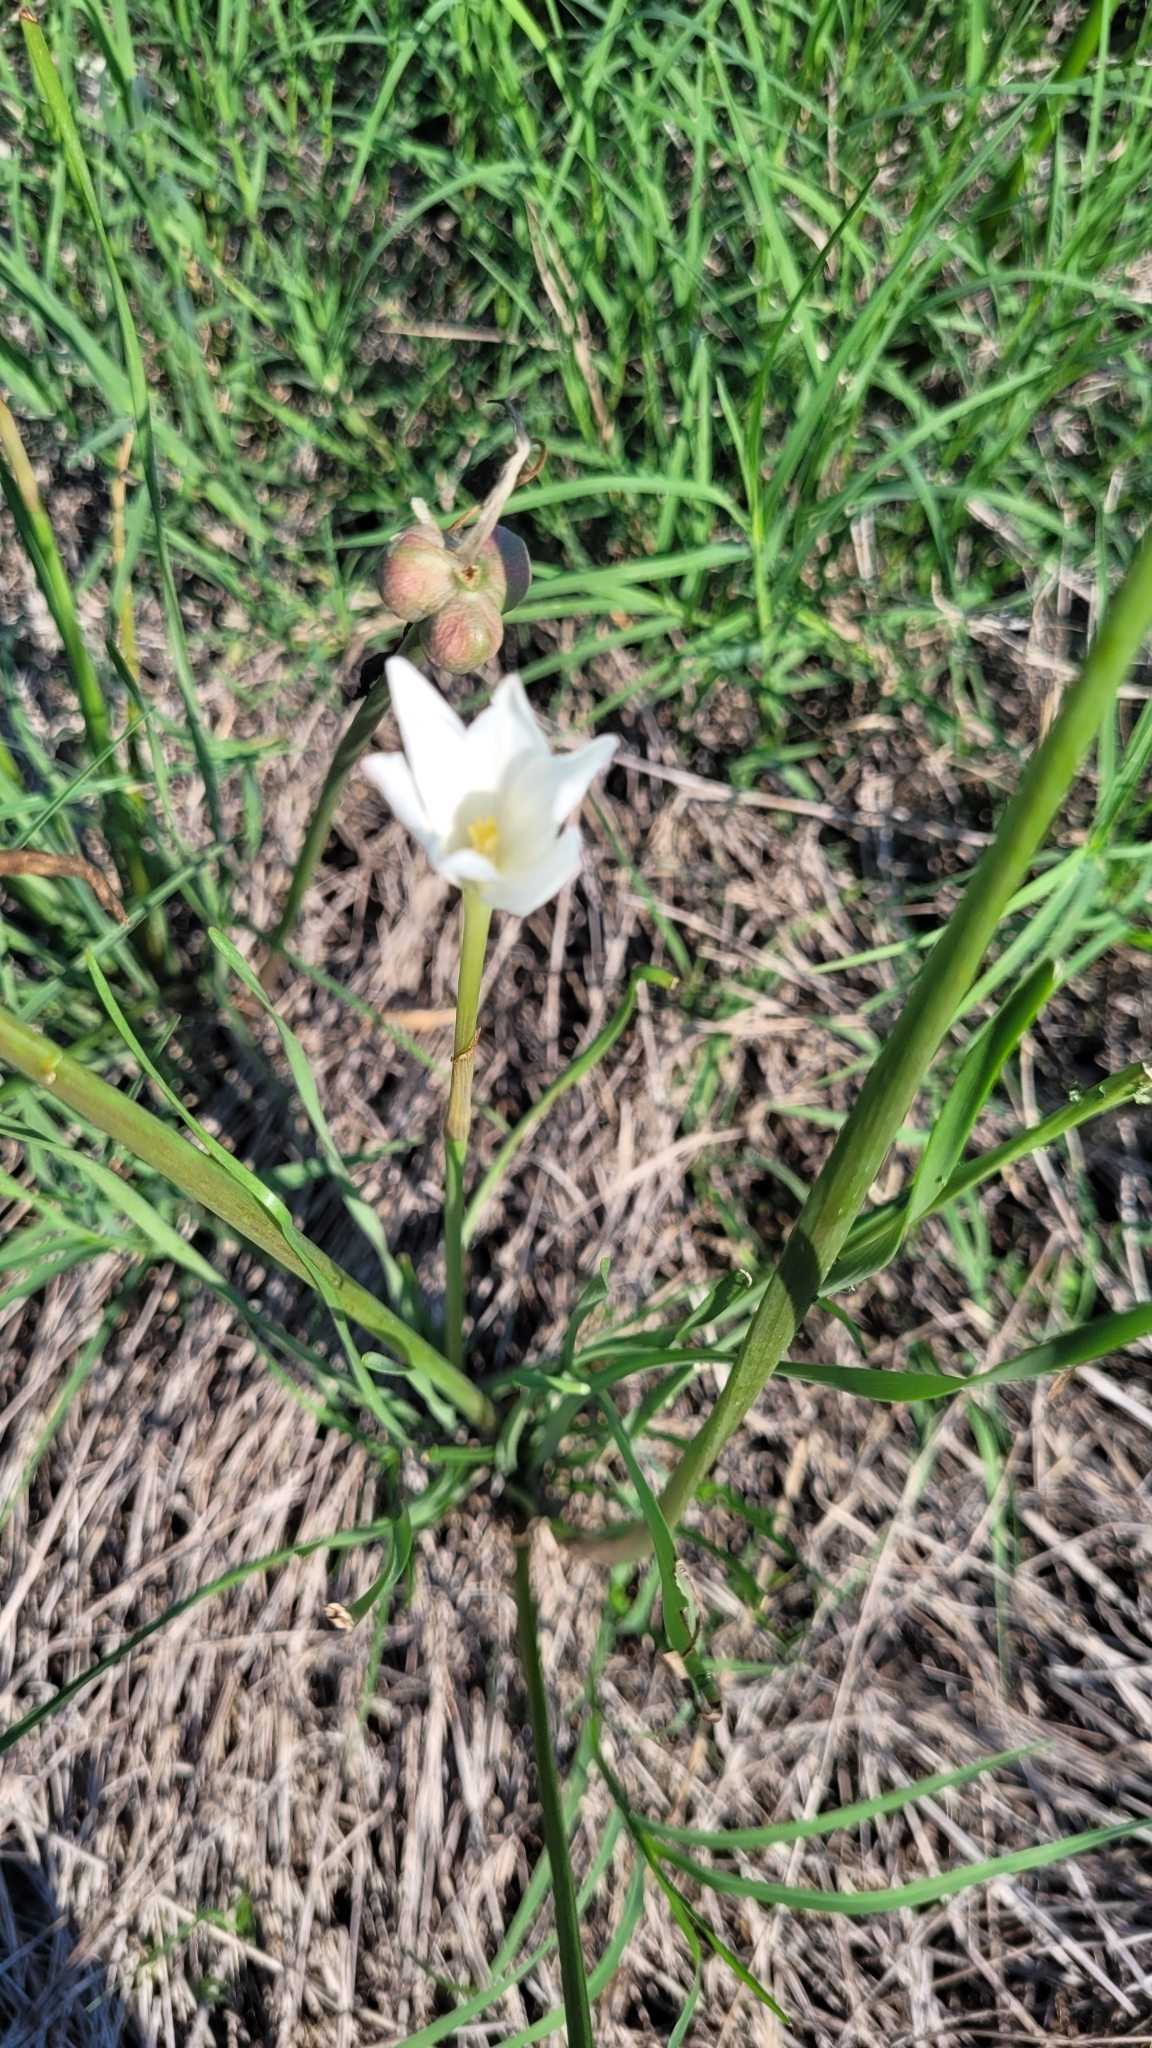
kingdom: Plantae
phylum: Tracheophyta
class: Liliopsida
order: Asparagales
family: Amaryllidaceae
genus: Zephyranthes
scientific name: Zephyranthes chlorosolen
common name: Evening rain-lily
